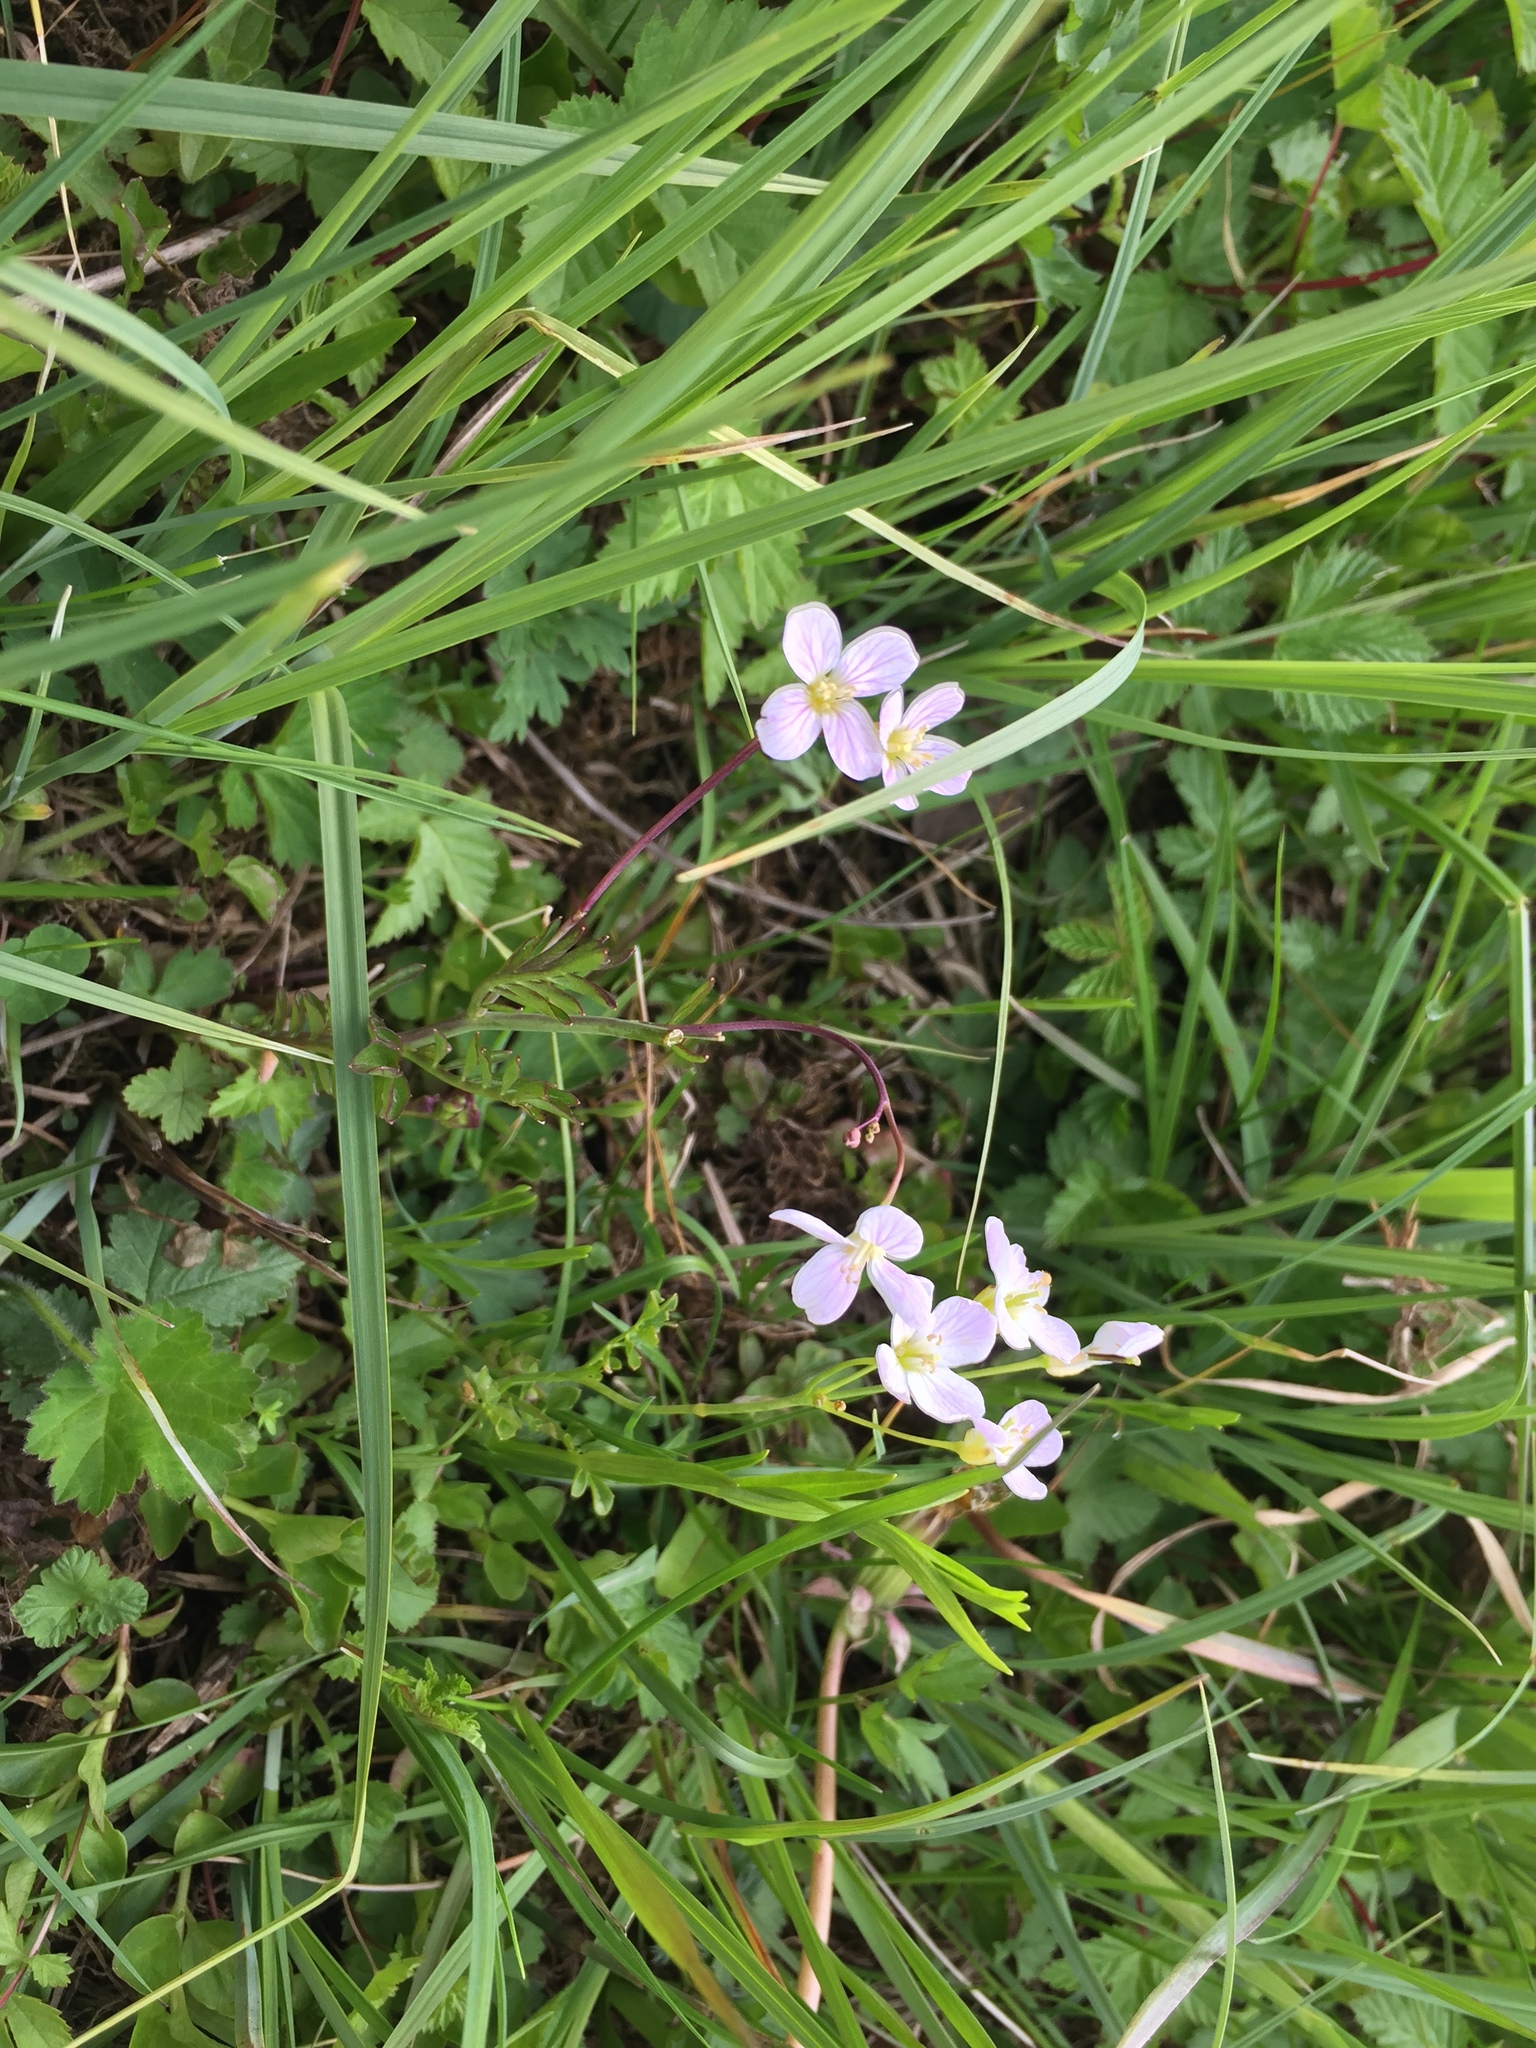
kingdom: Plantae
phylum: Tracheophyta
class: Magnoliopsida
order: Brassicales
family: Brassicaceae
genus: Cardamine
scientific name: Cardamine pratensis
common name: Cuckoo flower
